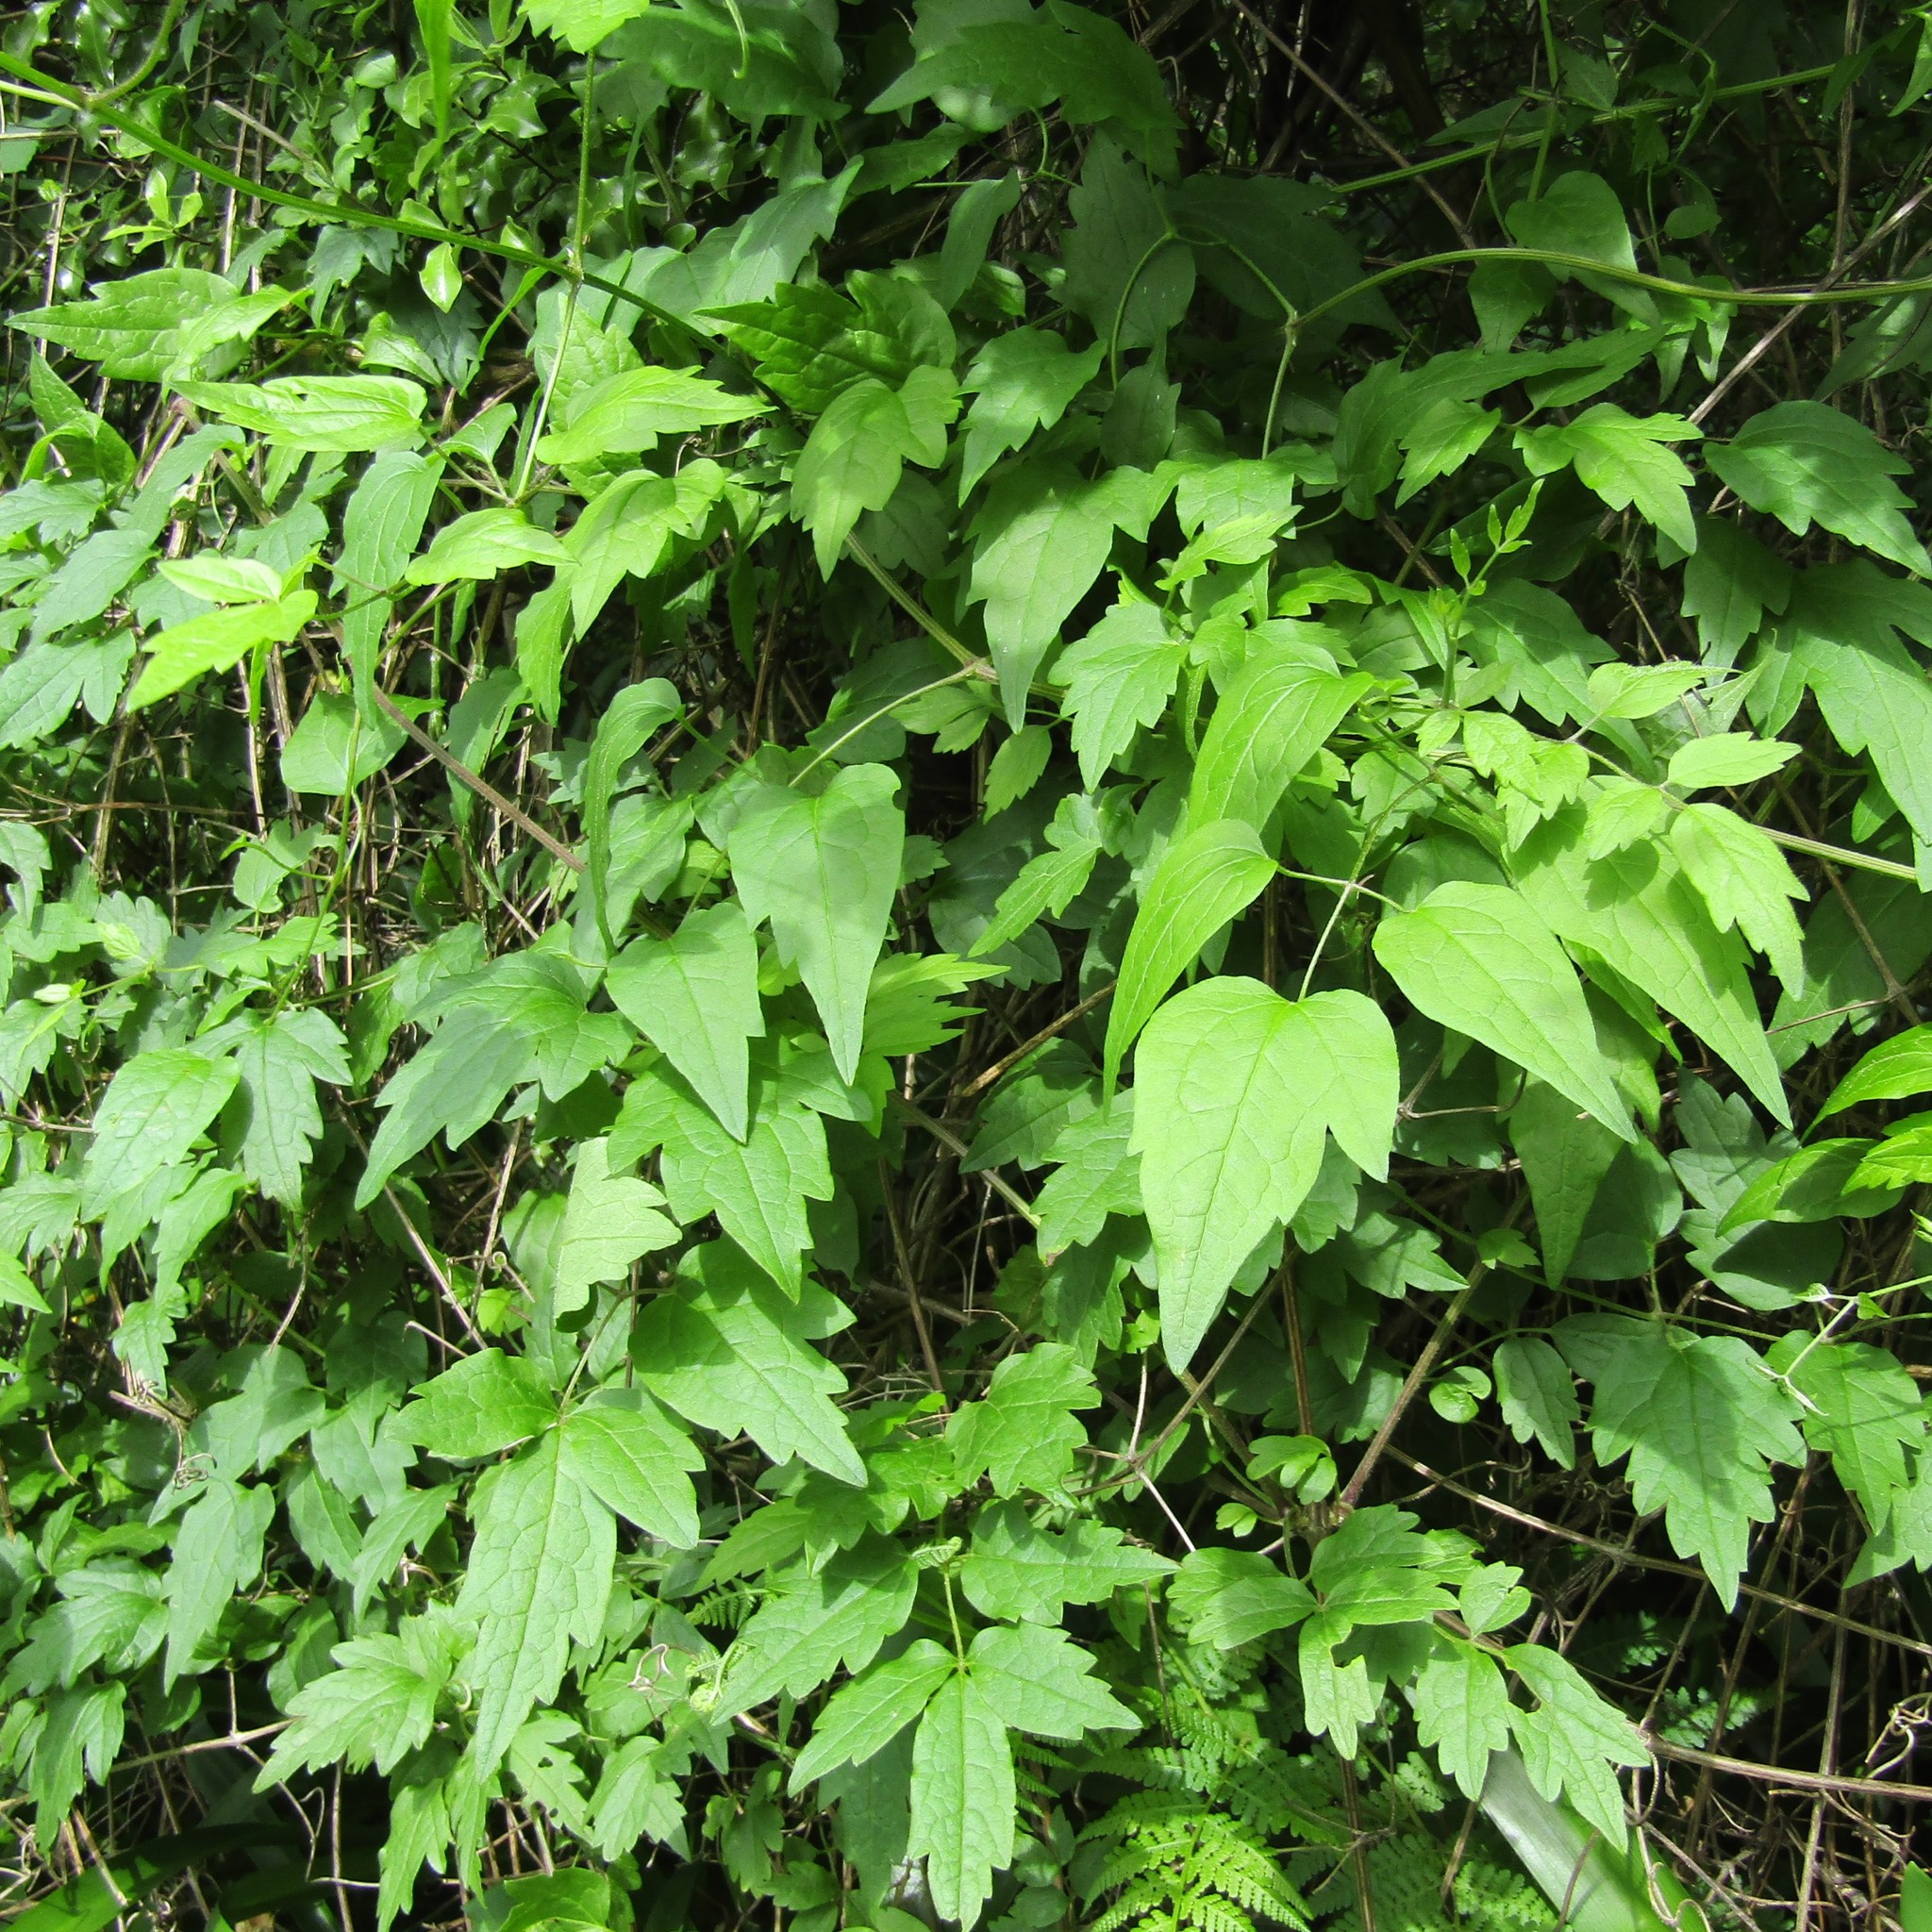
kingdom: Plantae
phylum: Tracheophyta
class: Magnoliopsida
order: Ranunculales
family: Ranunculaceae
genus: Clematis
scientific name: Clematis vitalba
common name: Evergreen clematis
